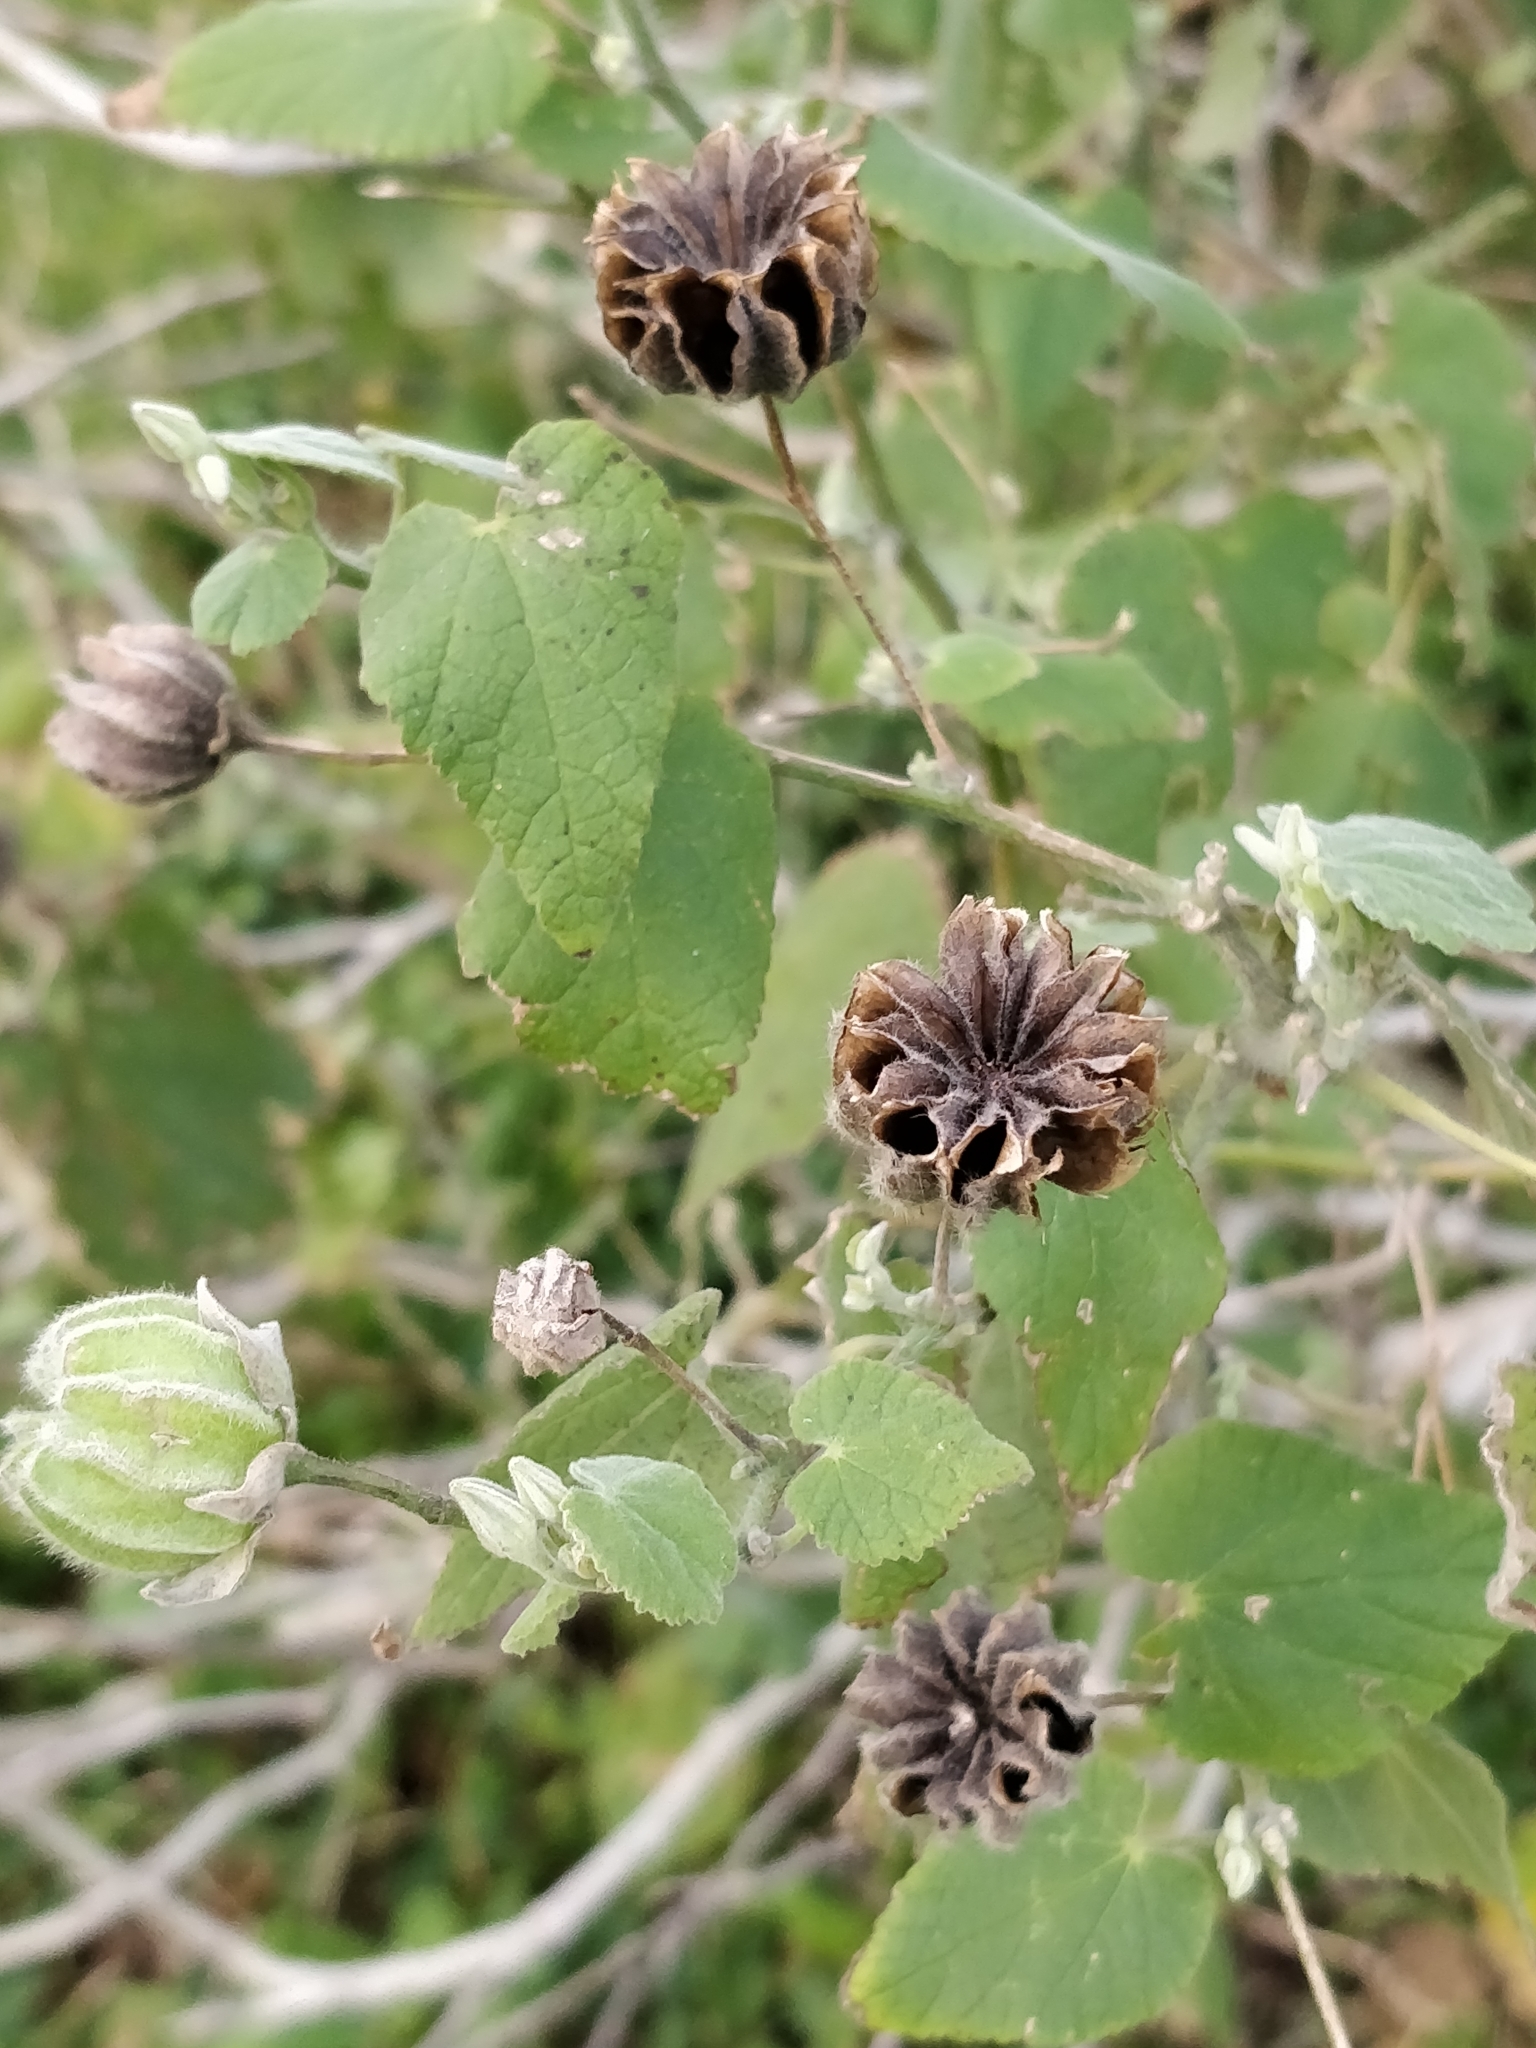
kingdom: Plantae
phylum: Tracheophyta
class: Magnoliopsida
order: Malvales
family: Malvaceae
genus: Abutilon
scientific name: Abutilon grandifolium
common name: Hairy abutilon
